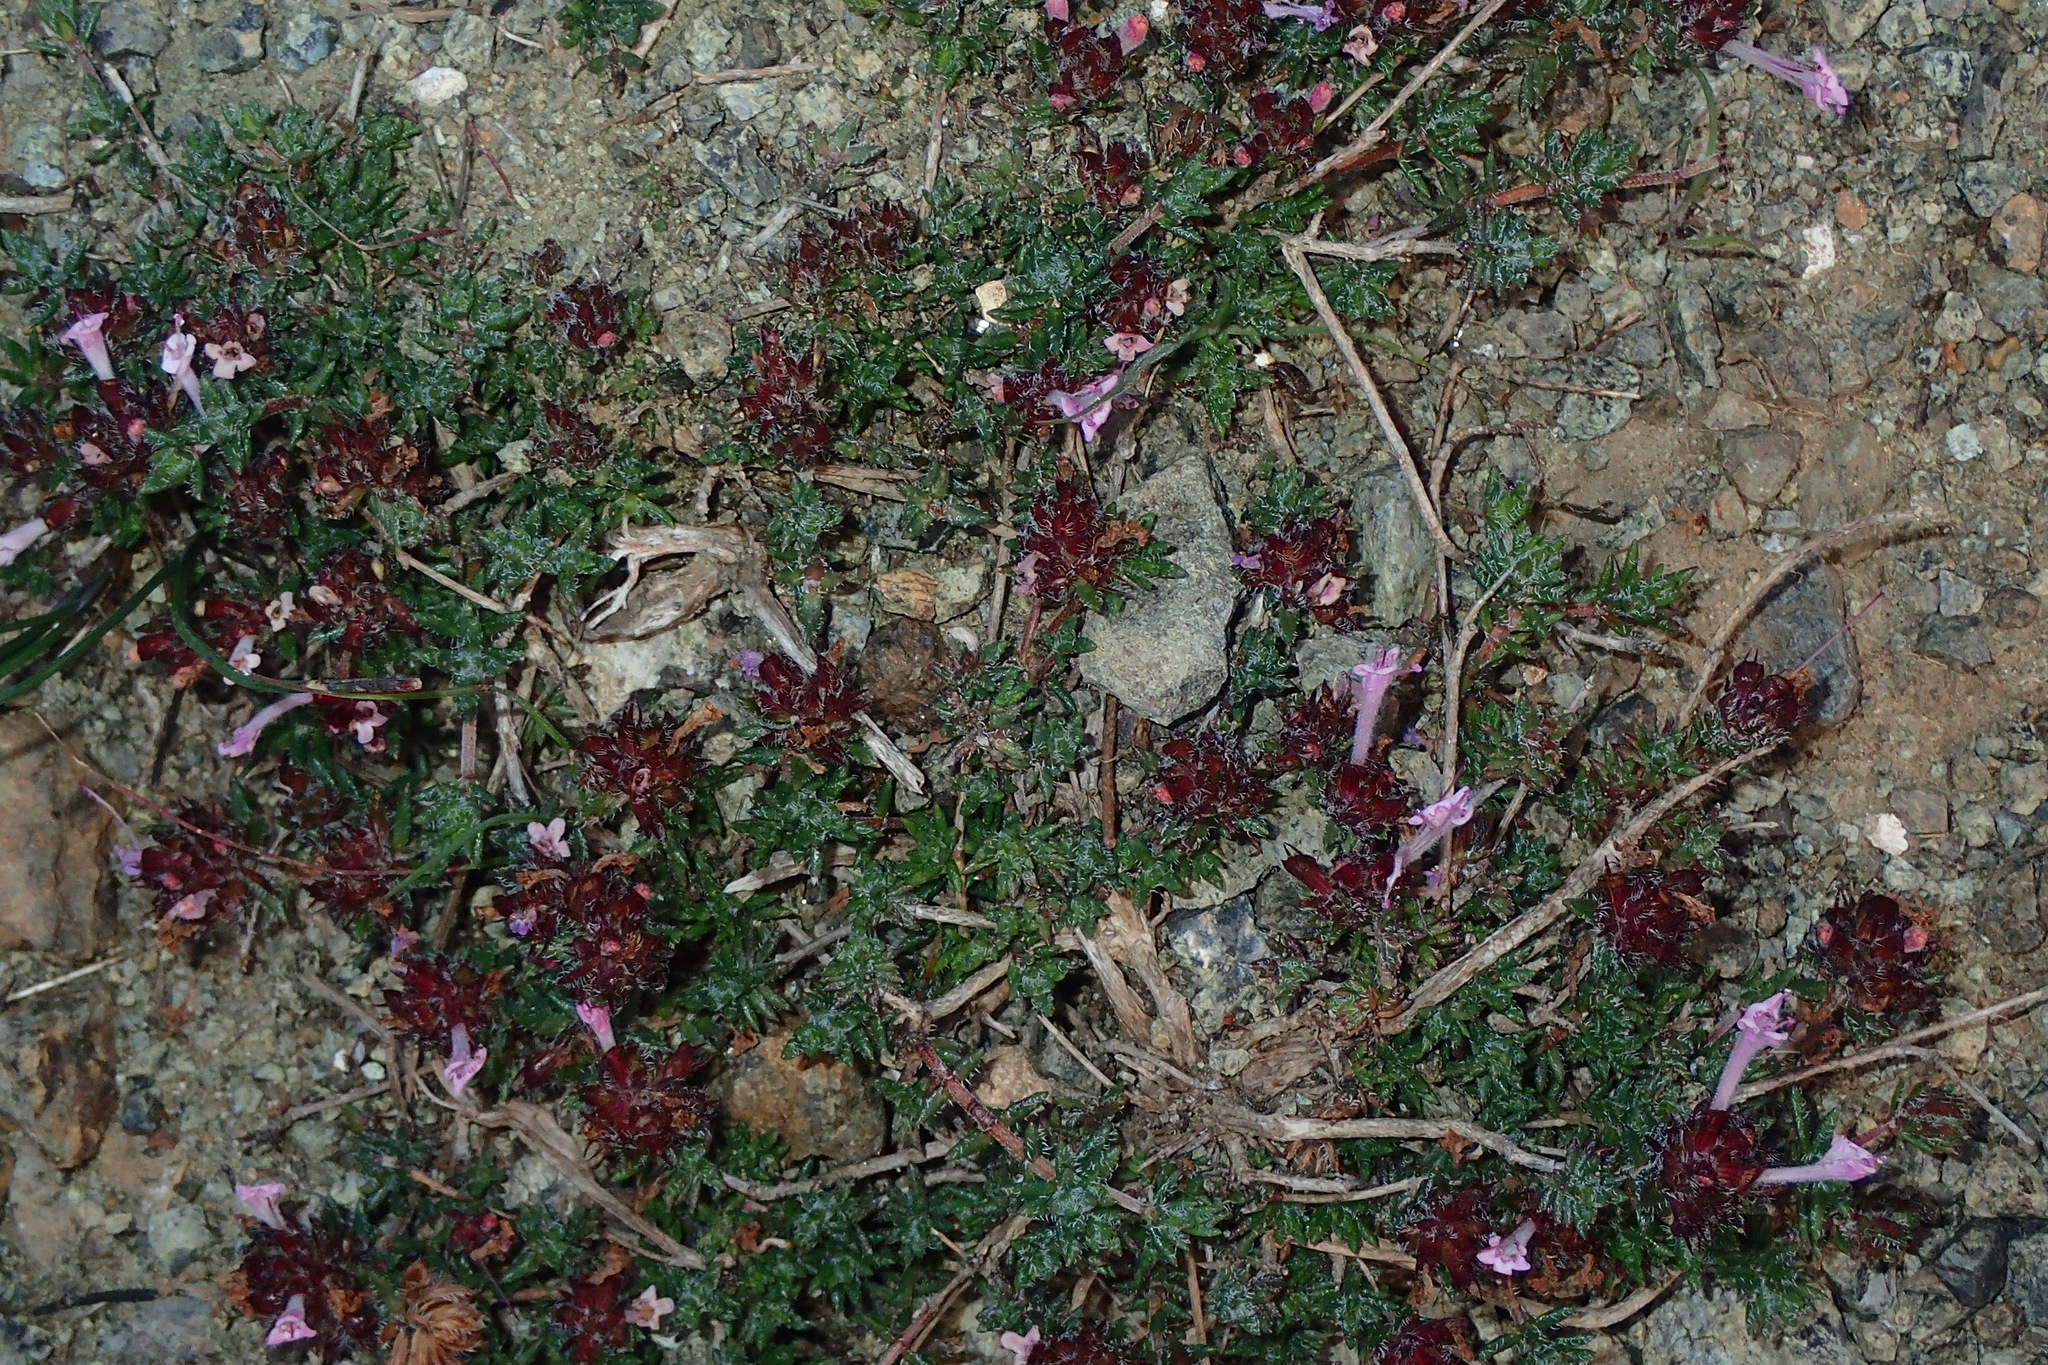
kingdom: Plantae
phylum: Tracheophyta
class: Magnoliopsida
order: Lamiales
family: Lamiaceae
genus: Thymus
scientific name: Thymus integer
